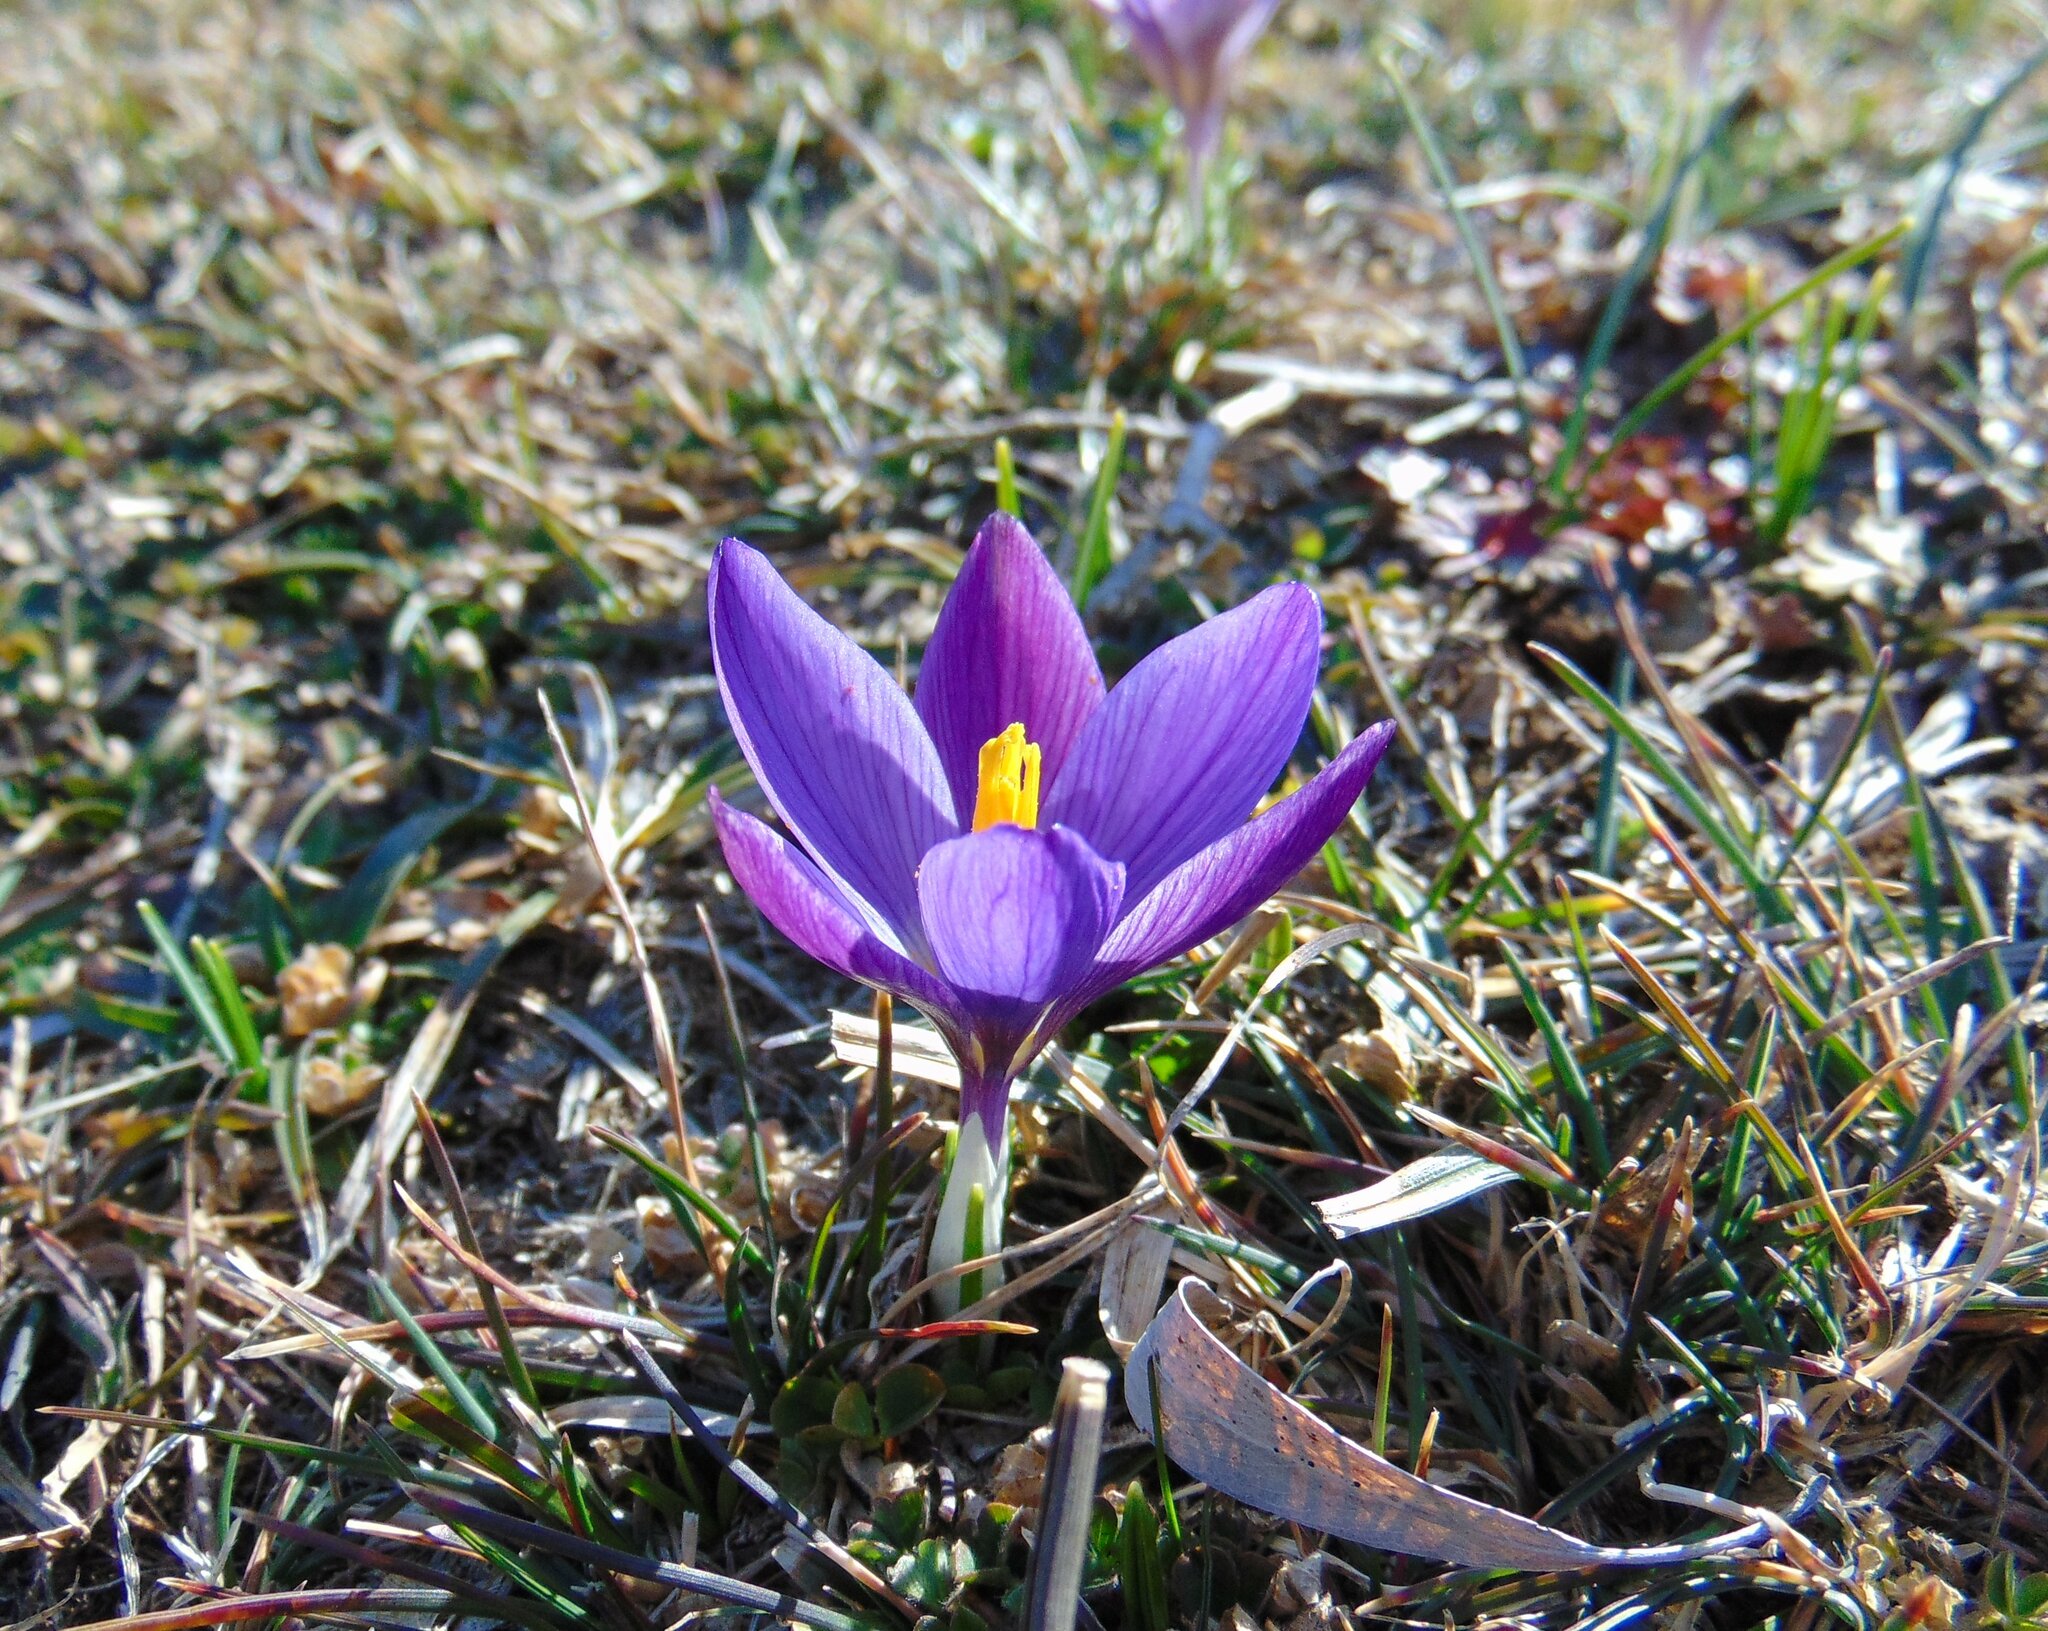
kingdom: Plantae
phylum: Tracheophyta
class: Liliopsida
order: Asparagales
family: Iridaceae
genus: Crocus
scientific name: Crocus dalmaticus
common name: Dalmatian saffron
